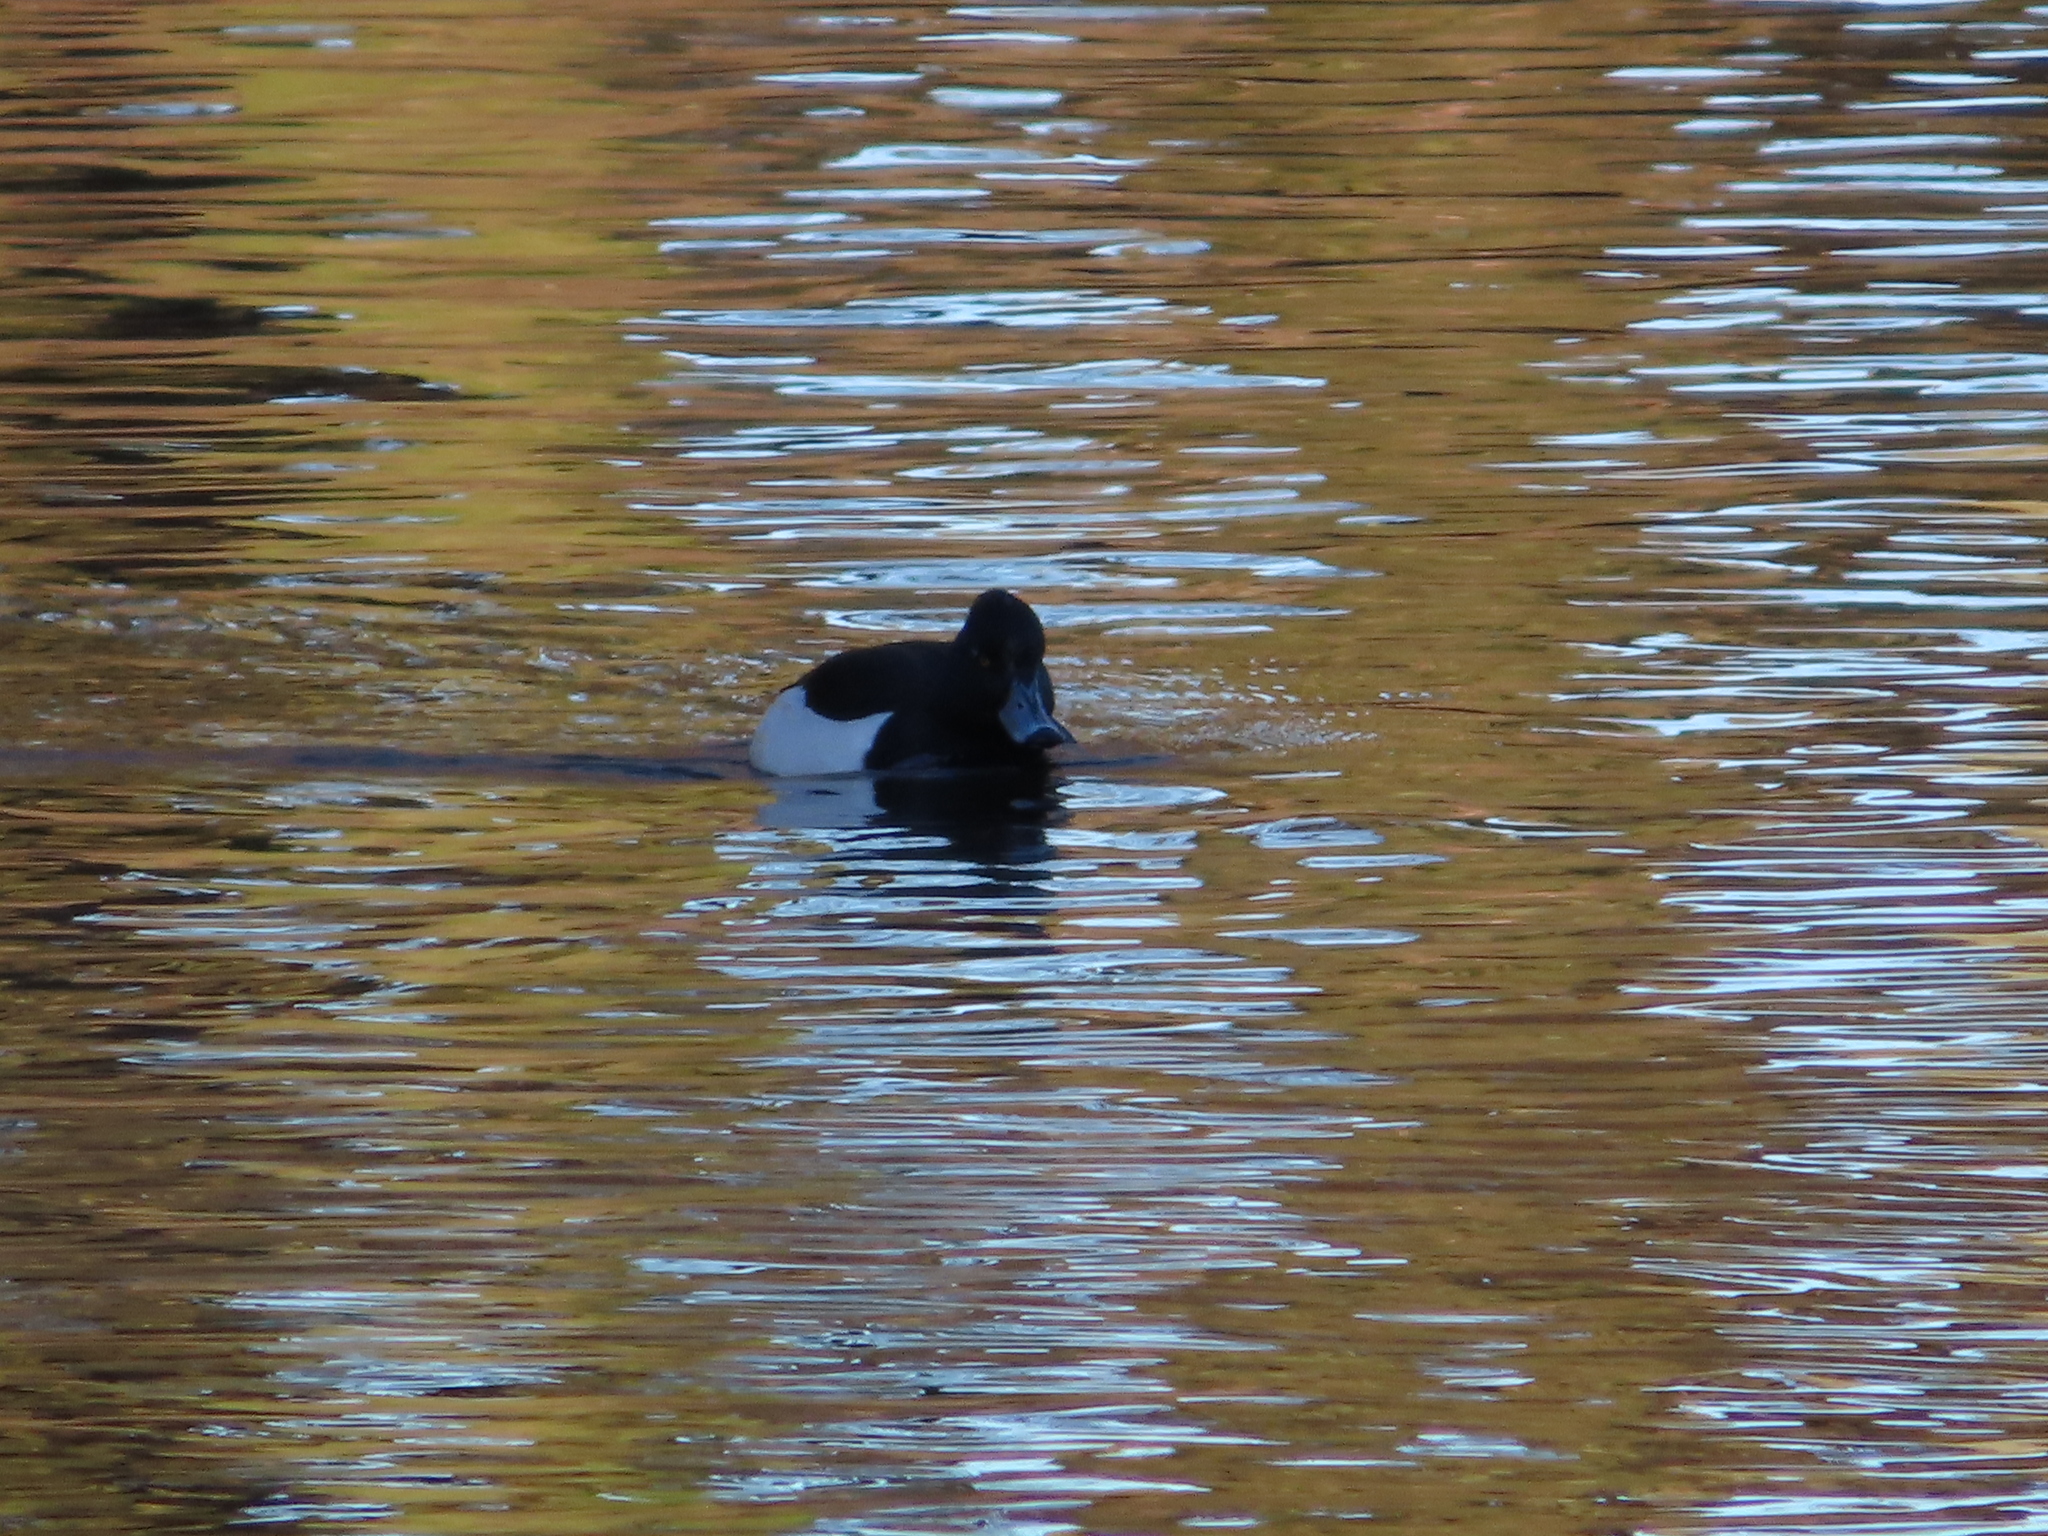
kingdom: Animalia
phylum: Chordata
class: Aves
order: Anseriformes
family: Anatidae
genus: Aythya
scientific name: Aythya fuligula
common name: Tufted duck
